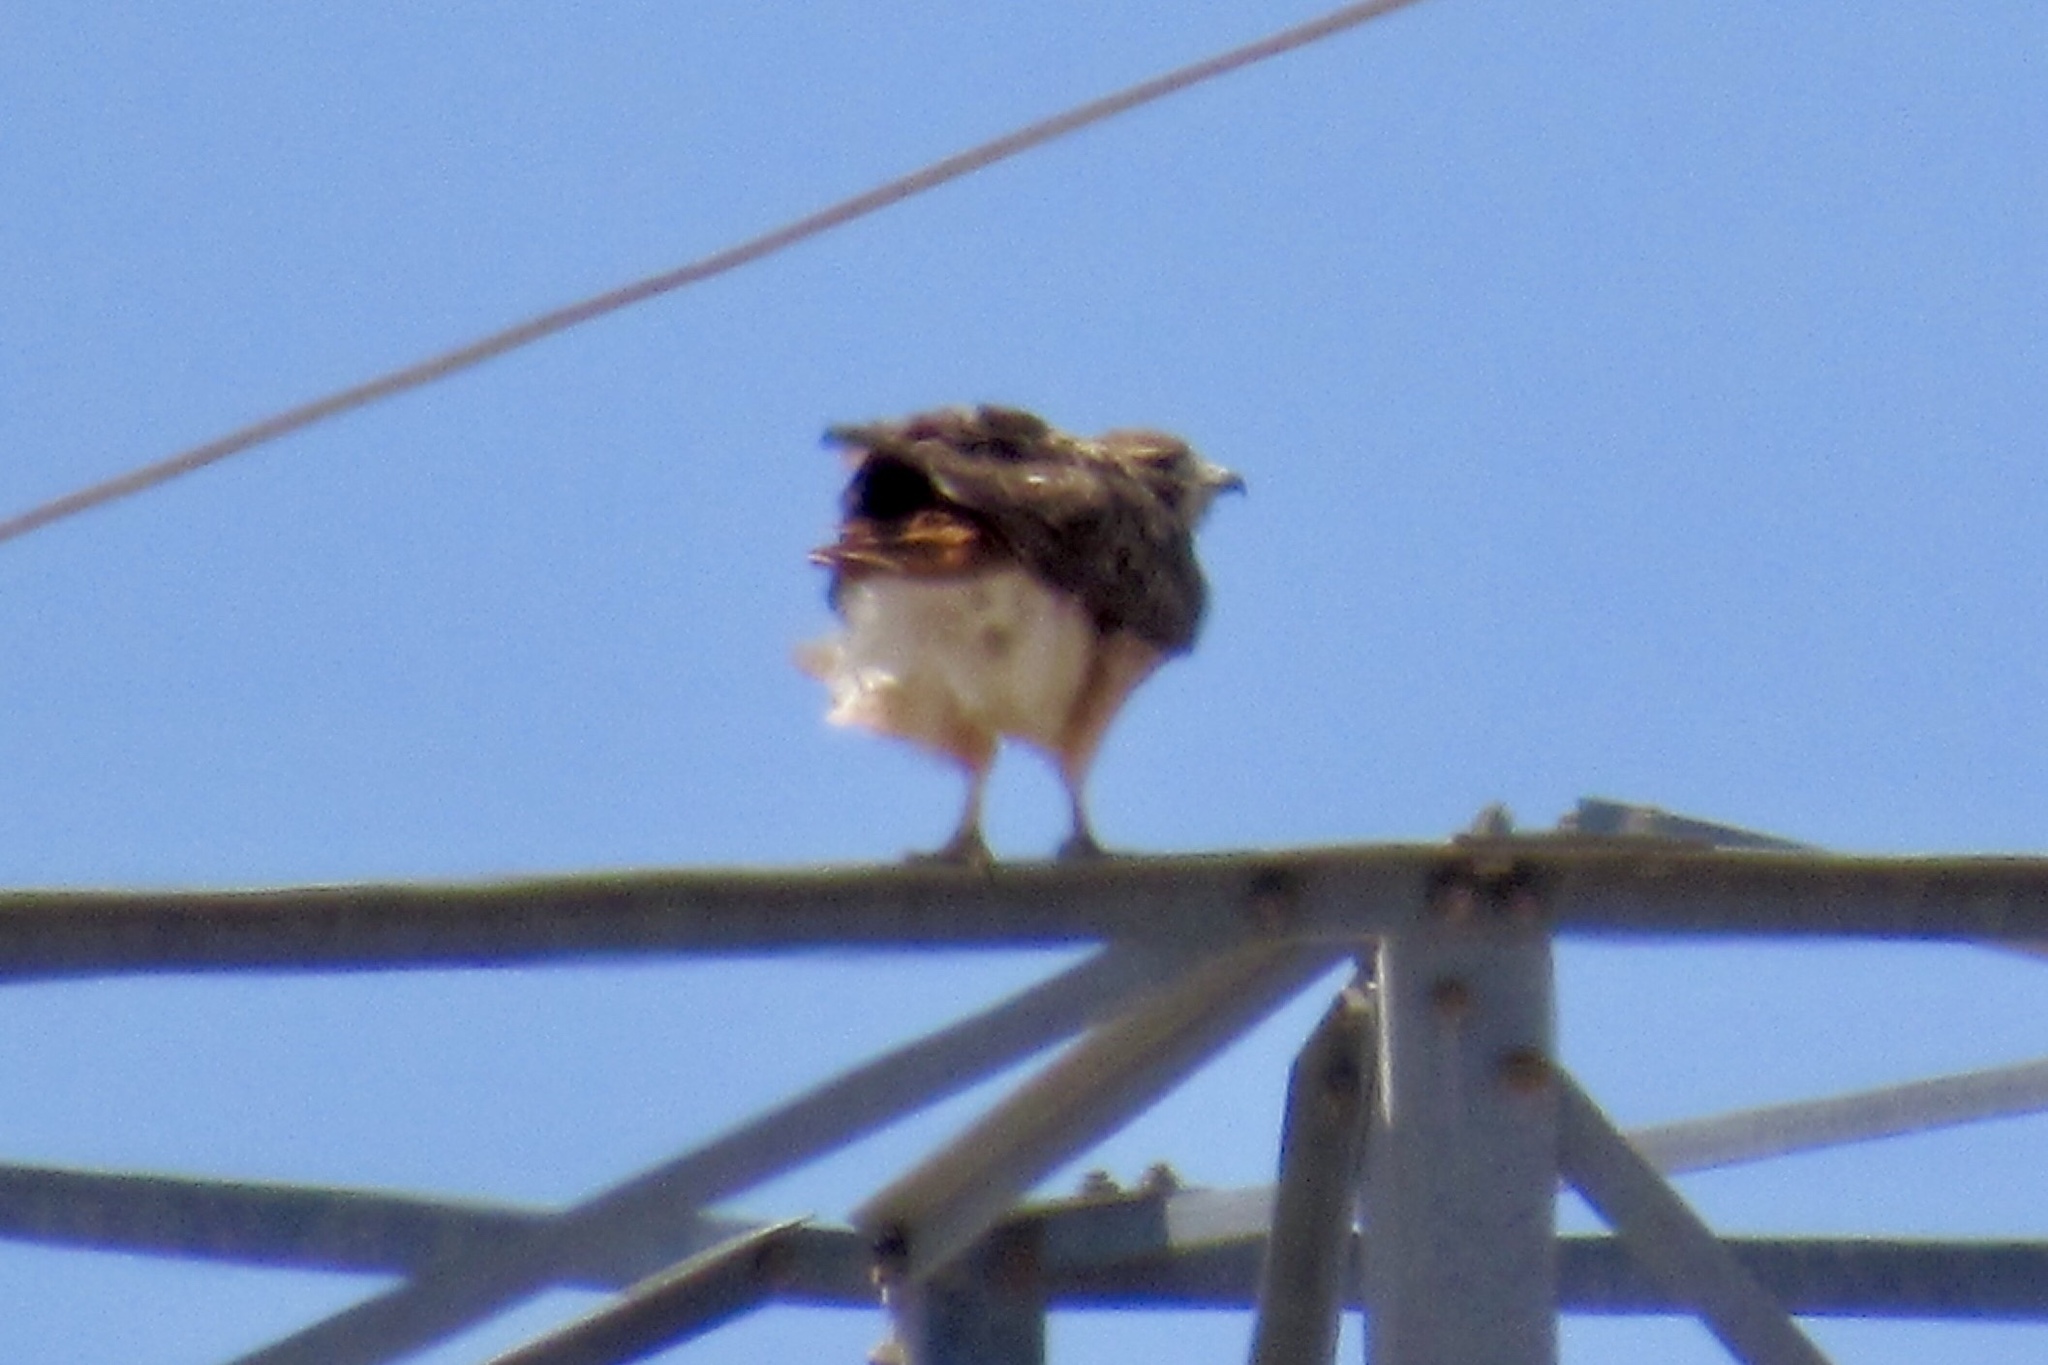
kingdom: Animalia
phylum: Chordata
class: Aves
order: Accipitriformes
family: Accipitridae
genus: Buteo
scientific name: Buteo jamaicensis
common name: Red-tailed hawk
